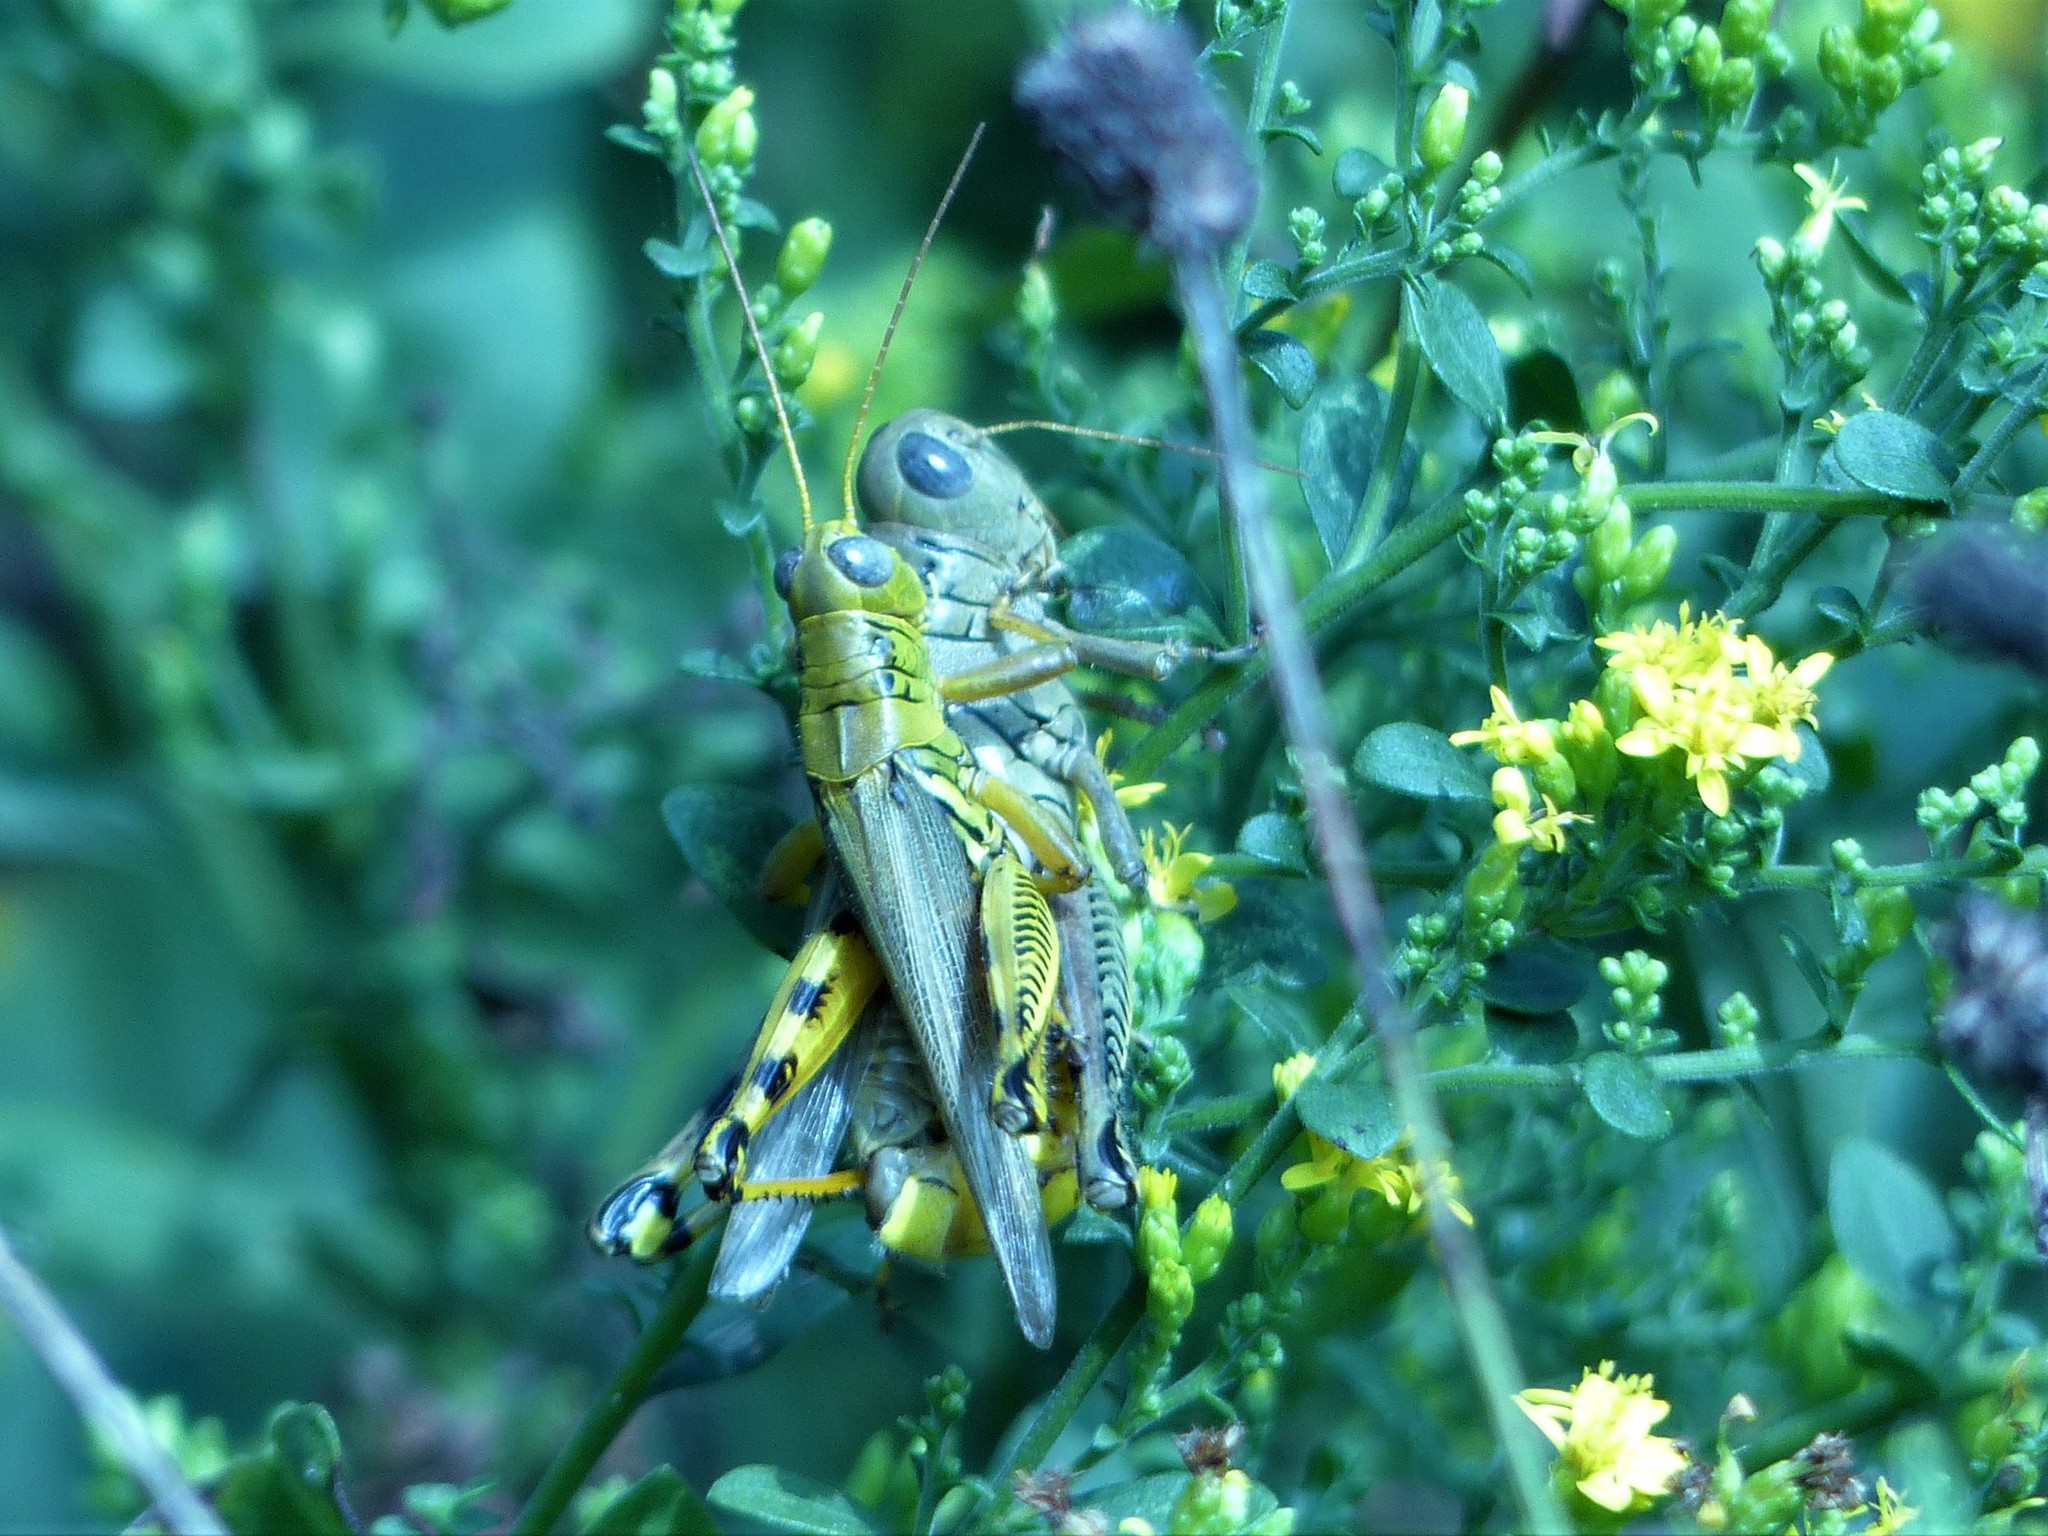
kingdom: Animalia
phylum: Arthropoda
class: Insecta
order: Orthoptera
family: Acrididae
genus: Melanoplus
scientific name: Melanoplus differentialis
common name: Differential grasshopper
